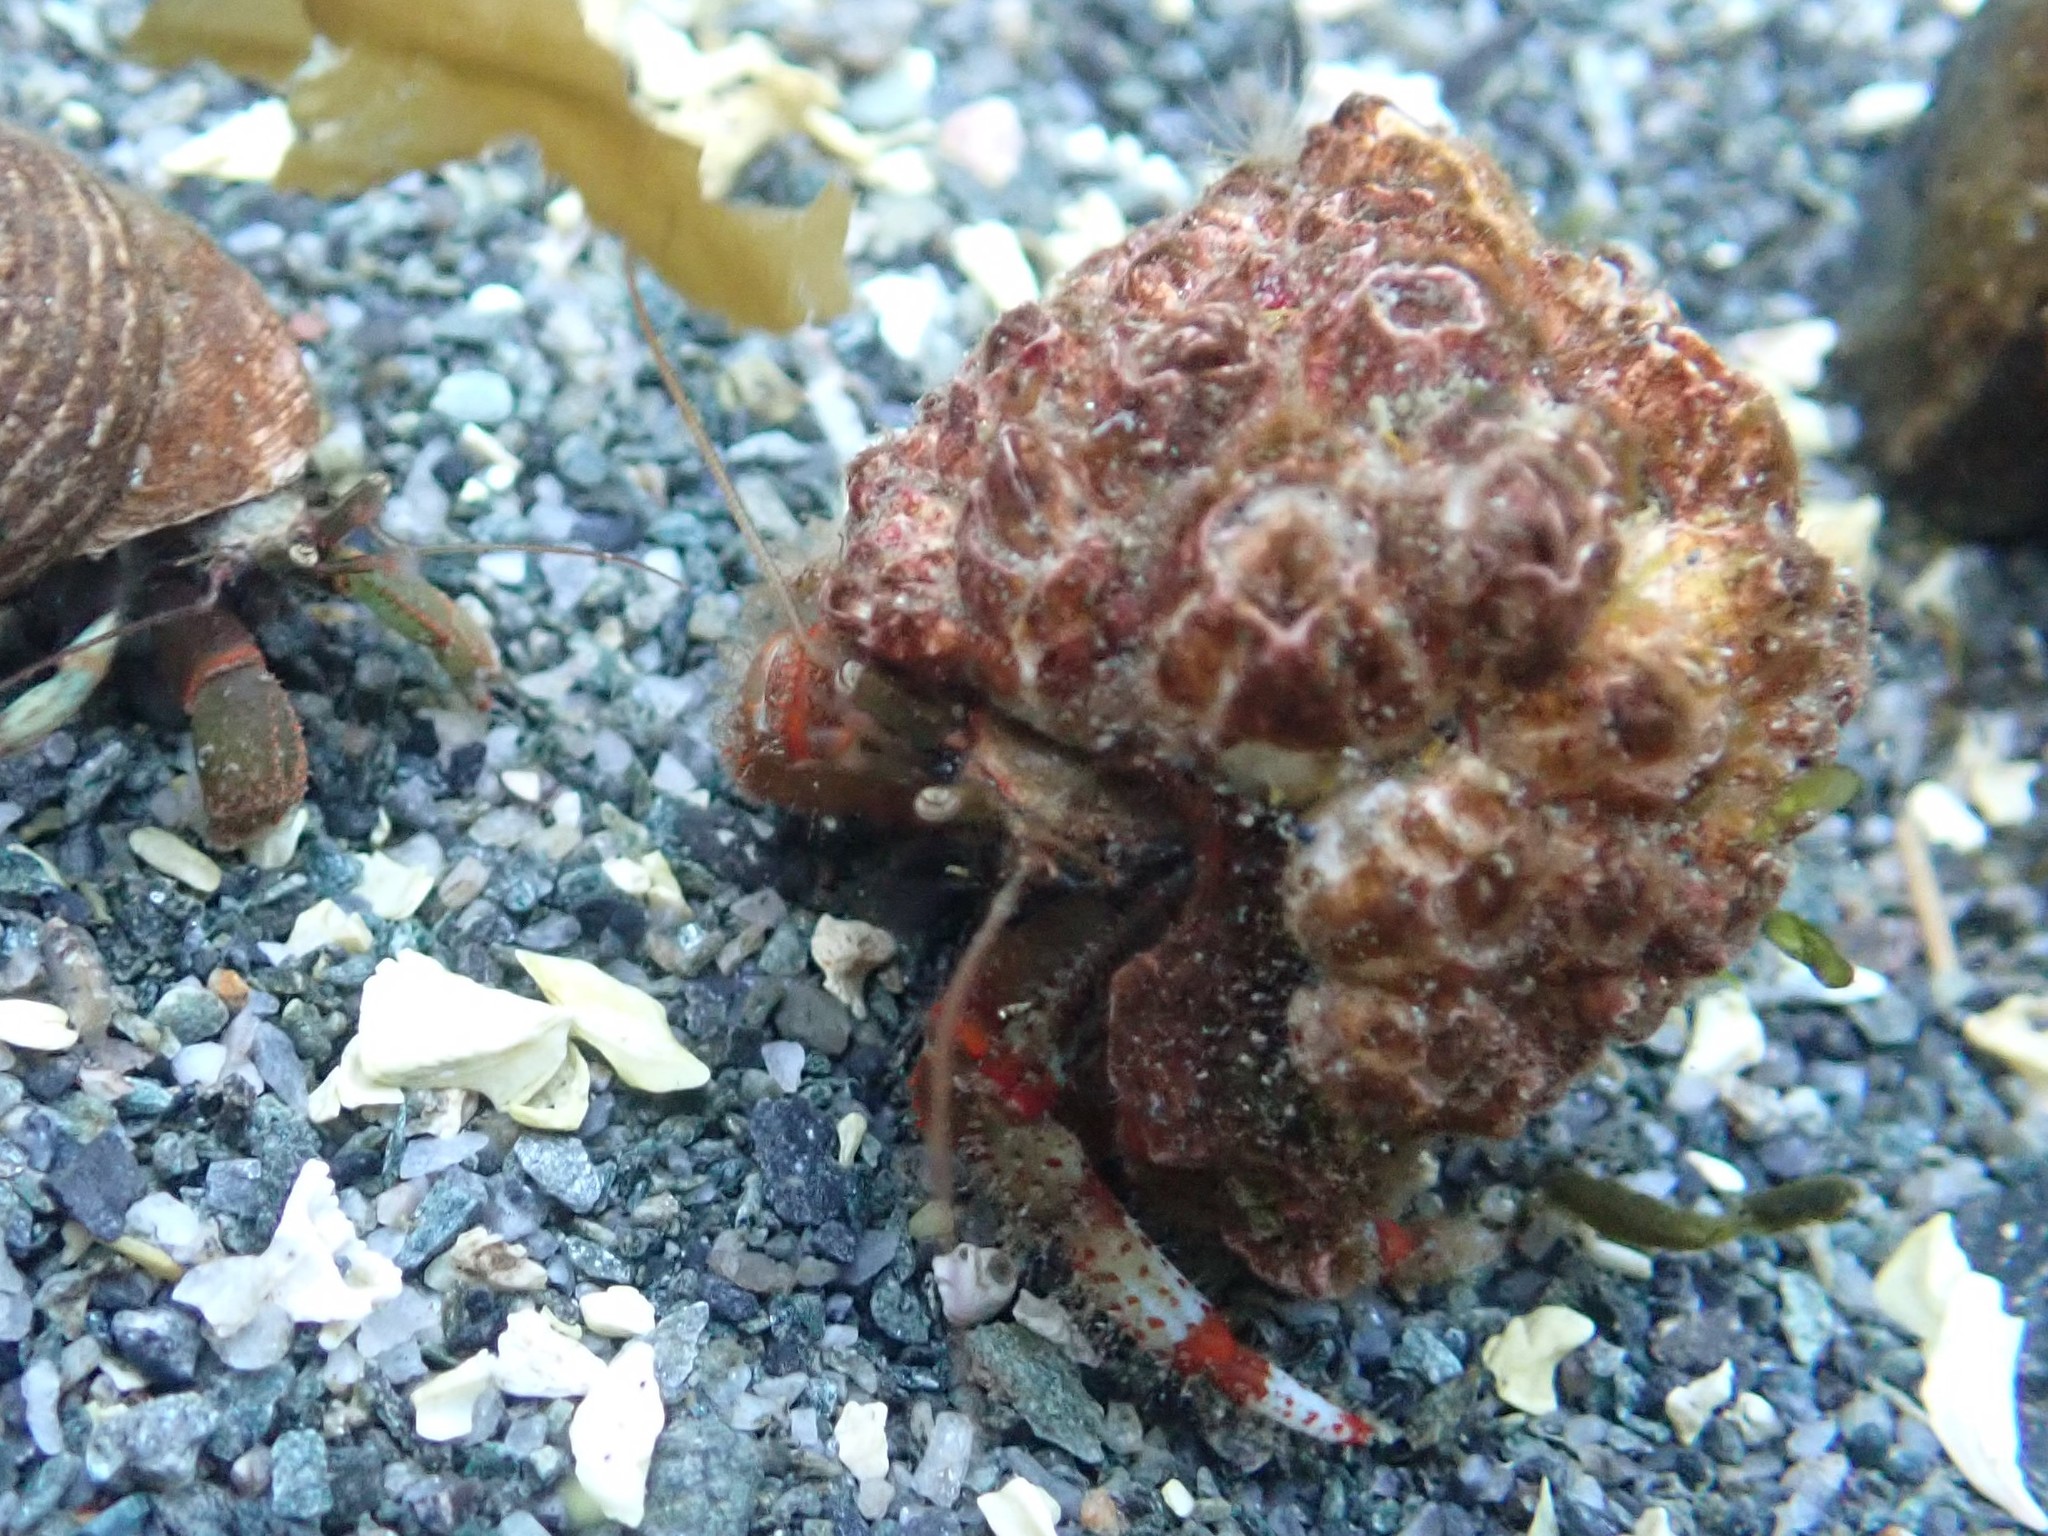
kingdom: Animalia
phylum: Arthropoda
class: Malacostraca
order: Decapoda
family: Paguridae
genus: Pagurus
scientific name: Pagurus beringanus
